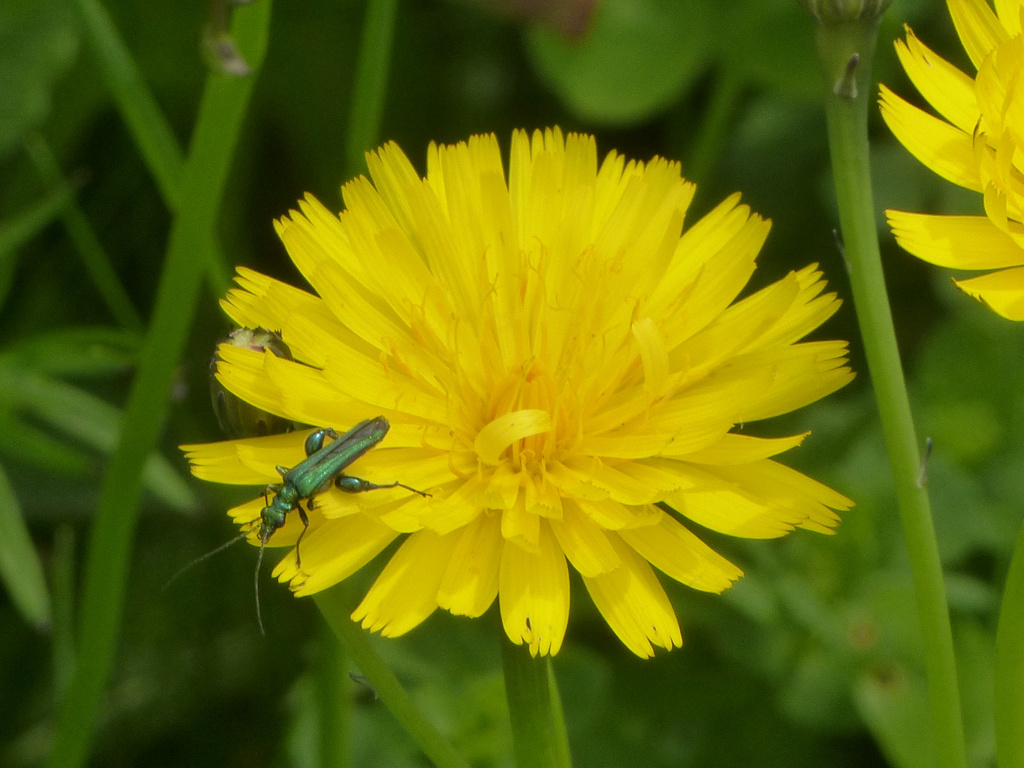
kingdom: Animalia
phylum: Arthropoda
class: Insecta
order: Coleoptera
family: Oedemeridae
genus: Oedemera
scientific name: Oedemera nobilis
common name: Swollen-thighed beetle
